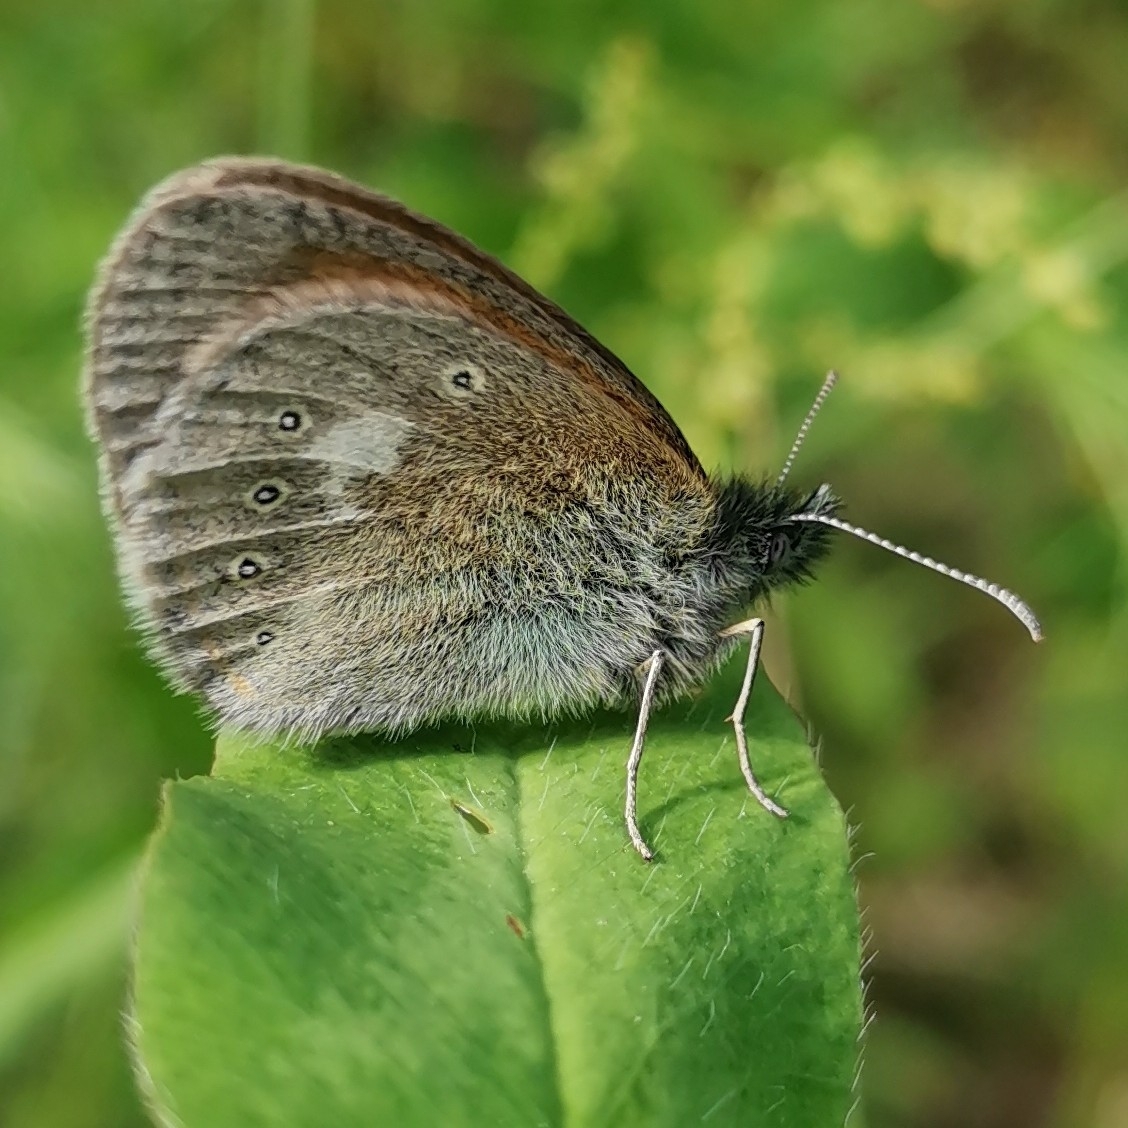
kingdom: Animalia
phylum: Arthropoda
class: Insecta
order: Lepidoptera
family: Nymphalidae
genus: Coenonympha
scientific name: Coenonympha iphis
